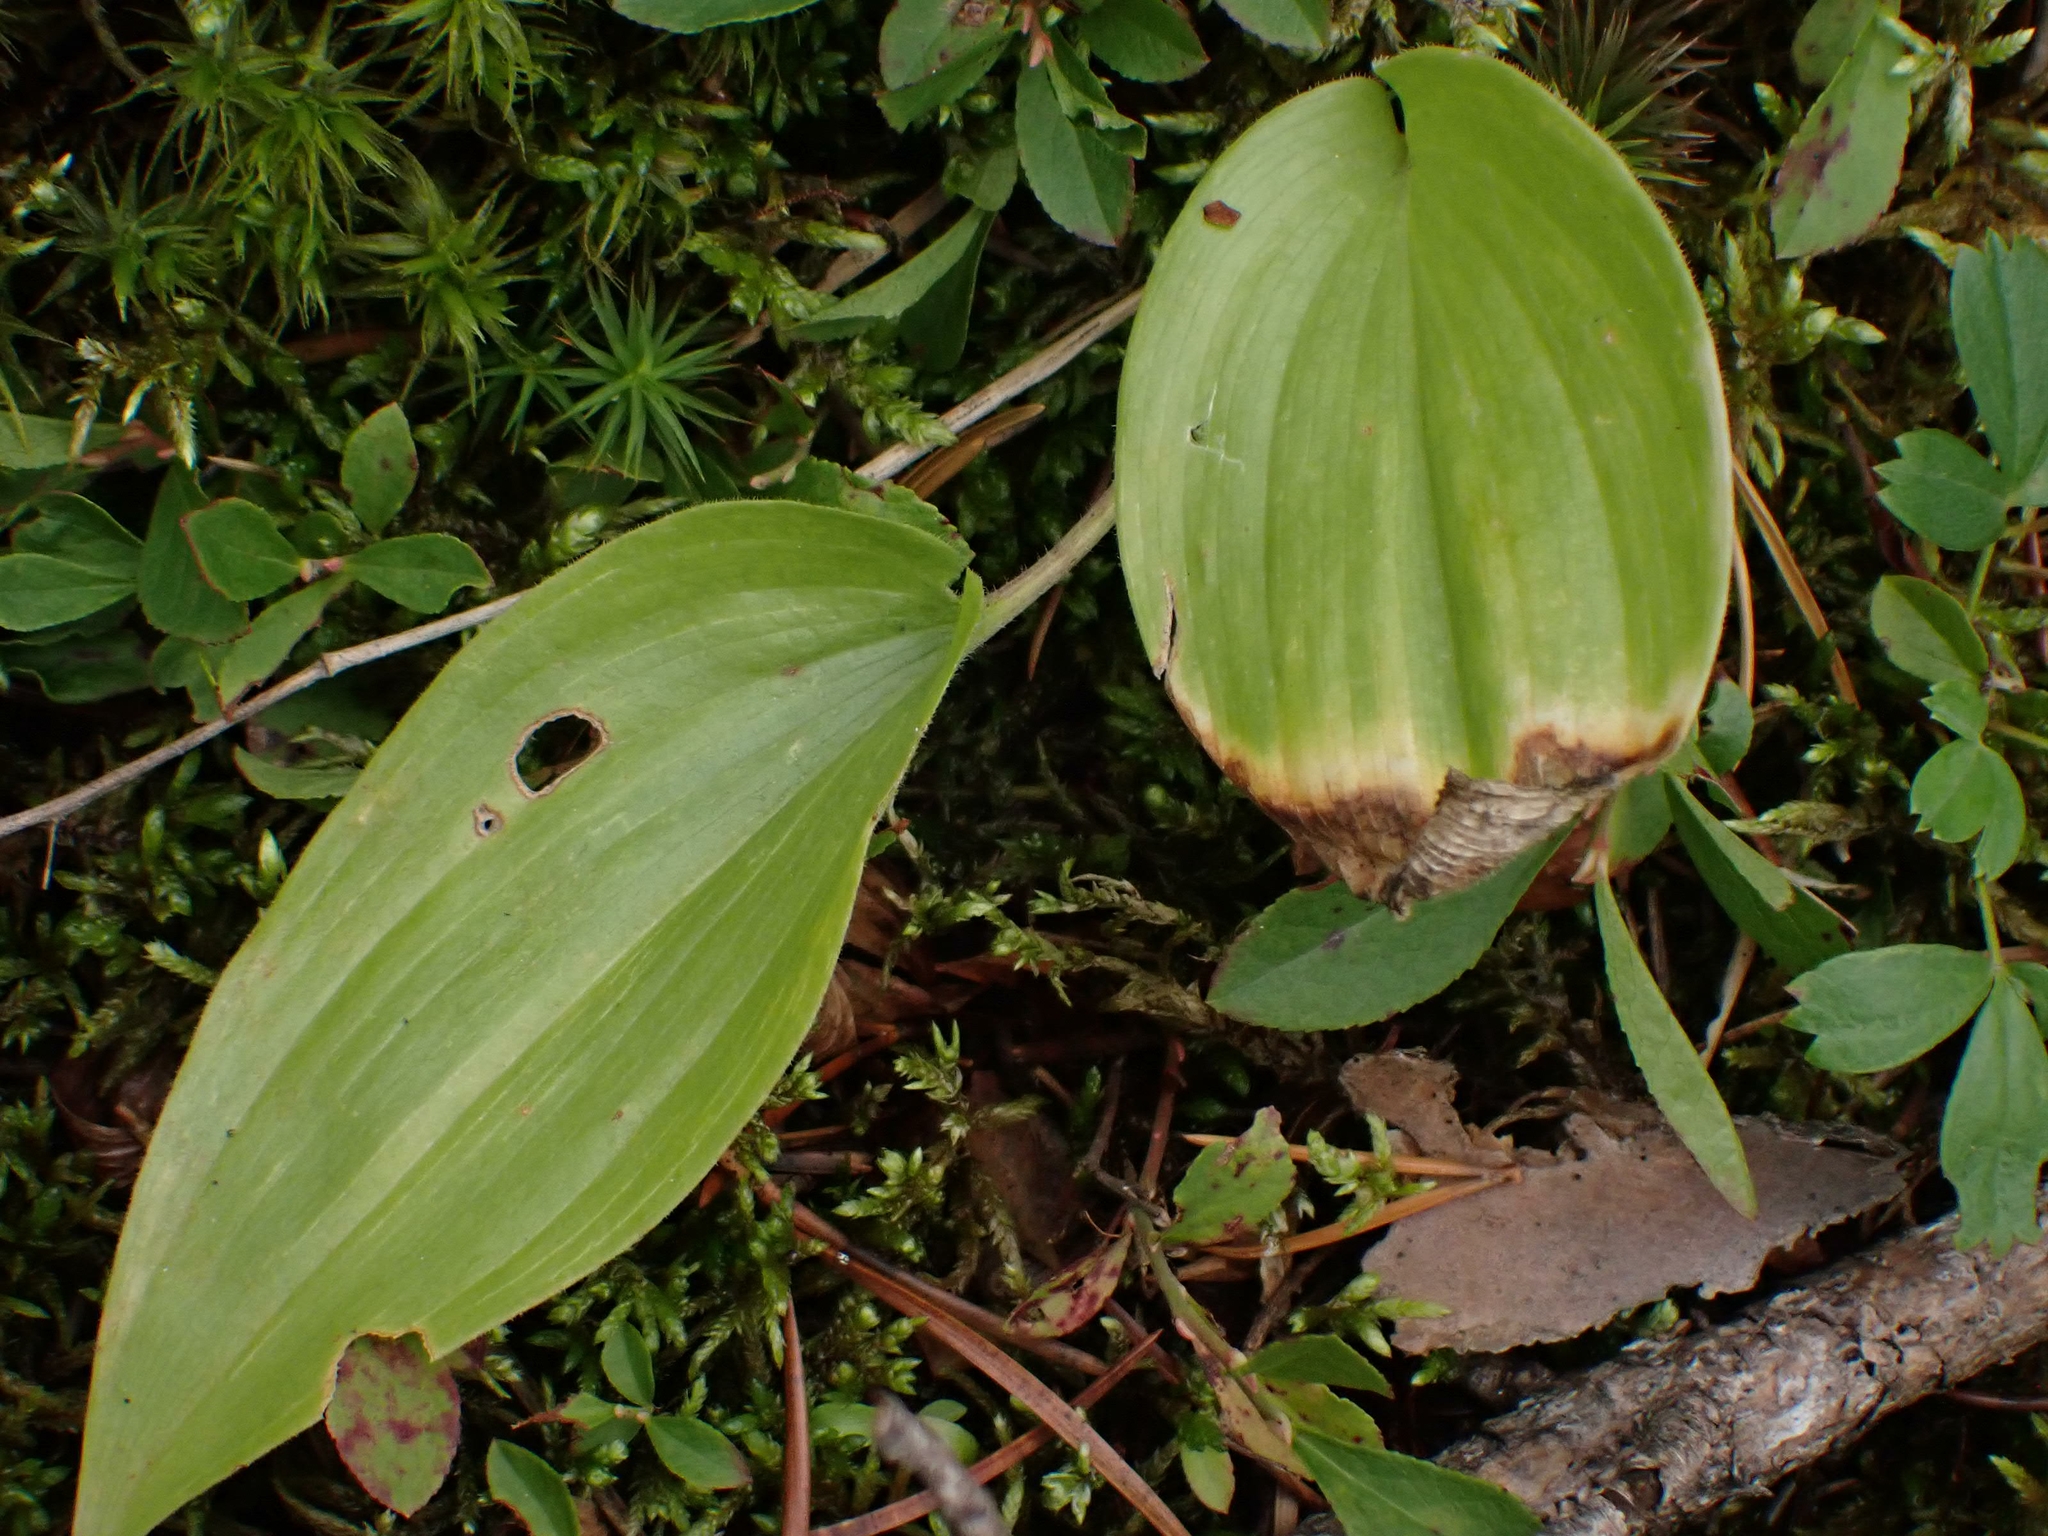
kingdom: Plantae
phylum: Tracheophyta
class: Liliopsida
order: Asparagales
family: Asparagaceae
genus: Maianthemum
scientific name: Maianthemum canadense
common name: False lily-of-the-valley
